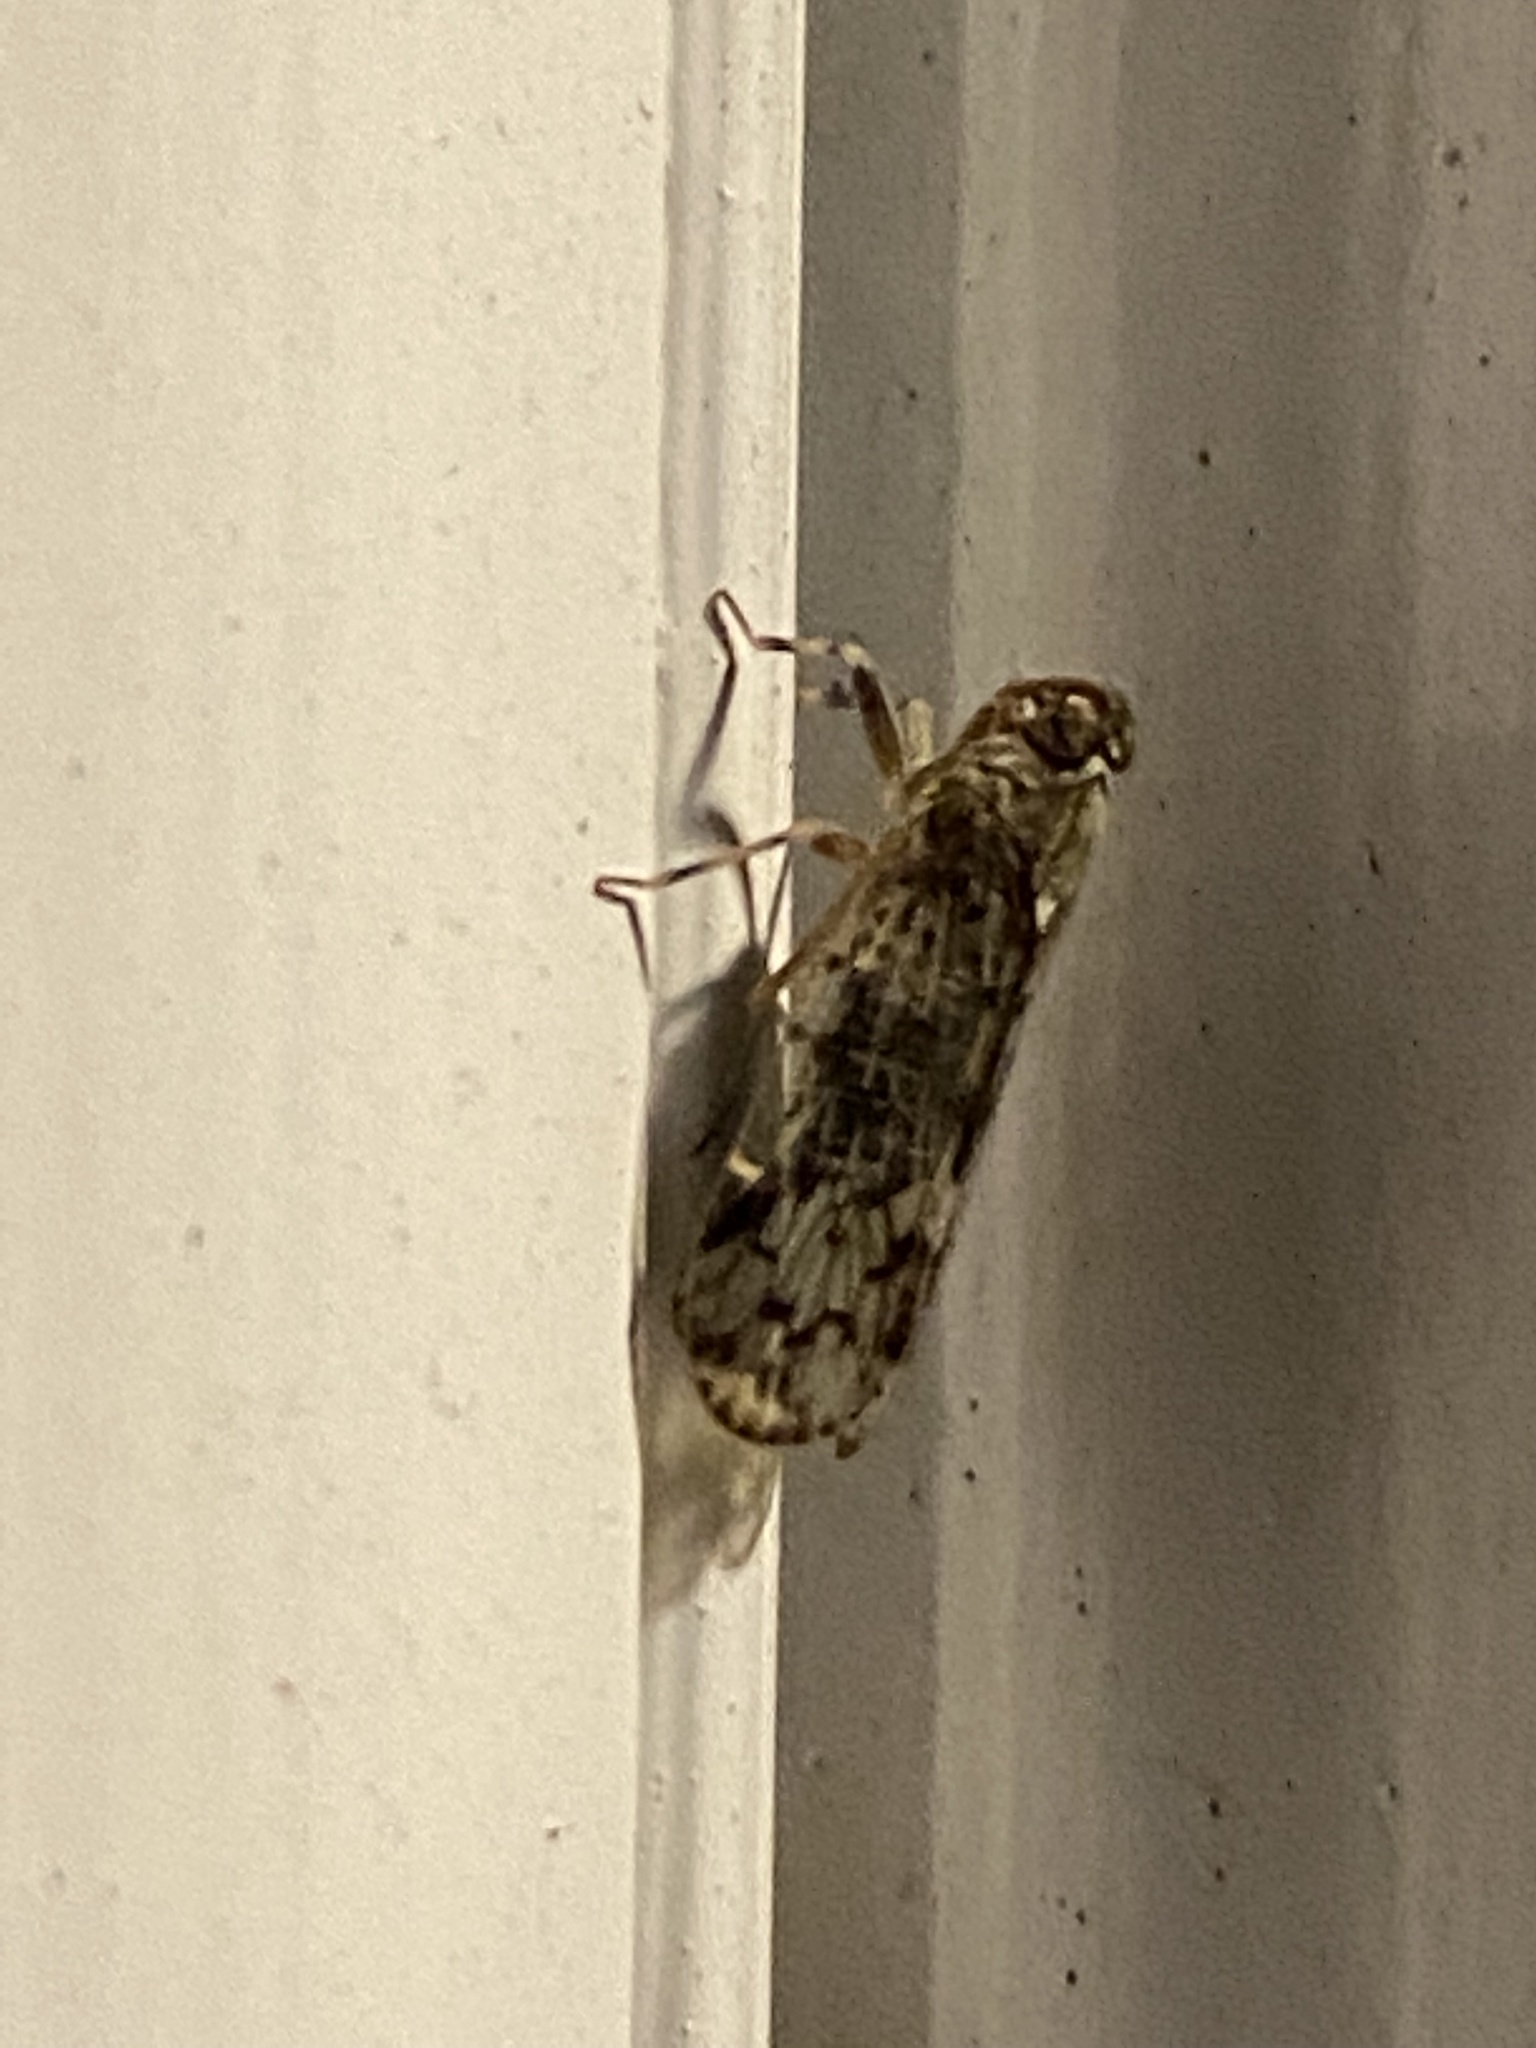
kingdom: Animalia
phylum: Arthropoda
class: Insecta
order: Hemiptera
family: Cixiidae
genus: Melanoliarus
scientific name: Melanoliarus placitus
